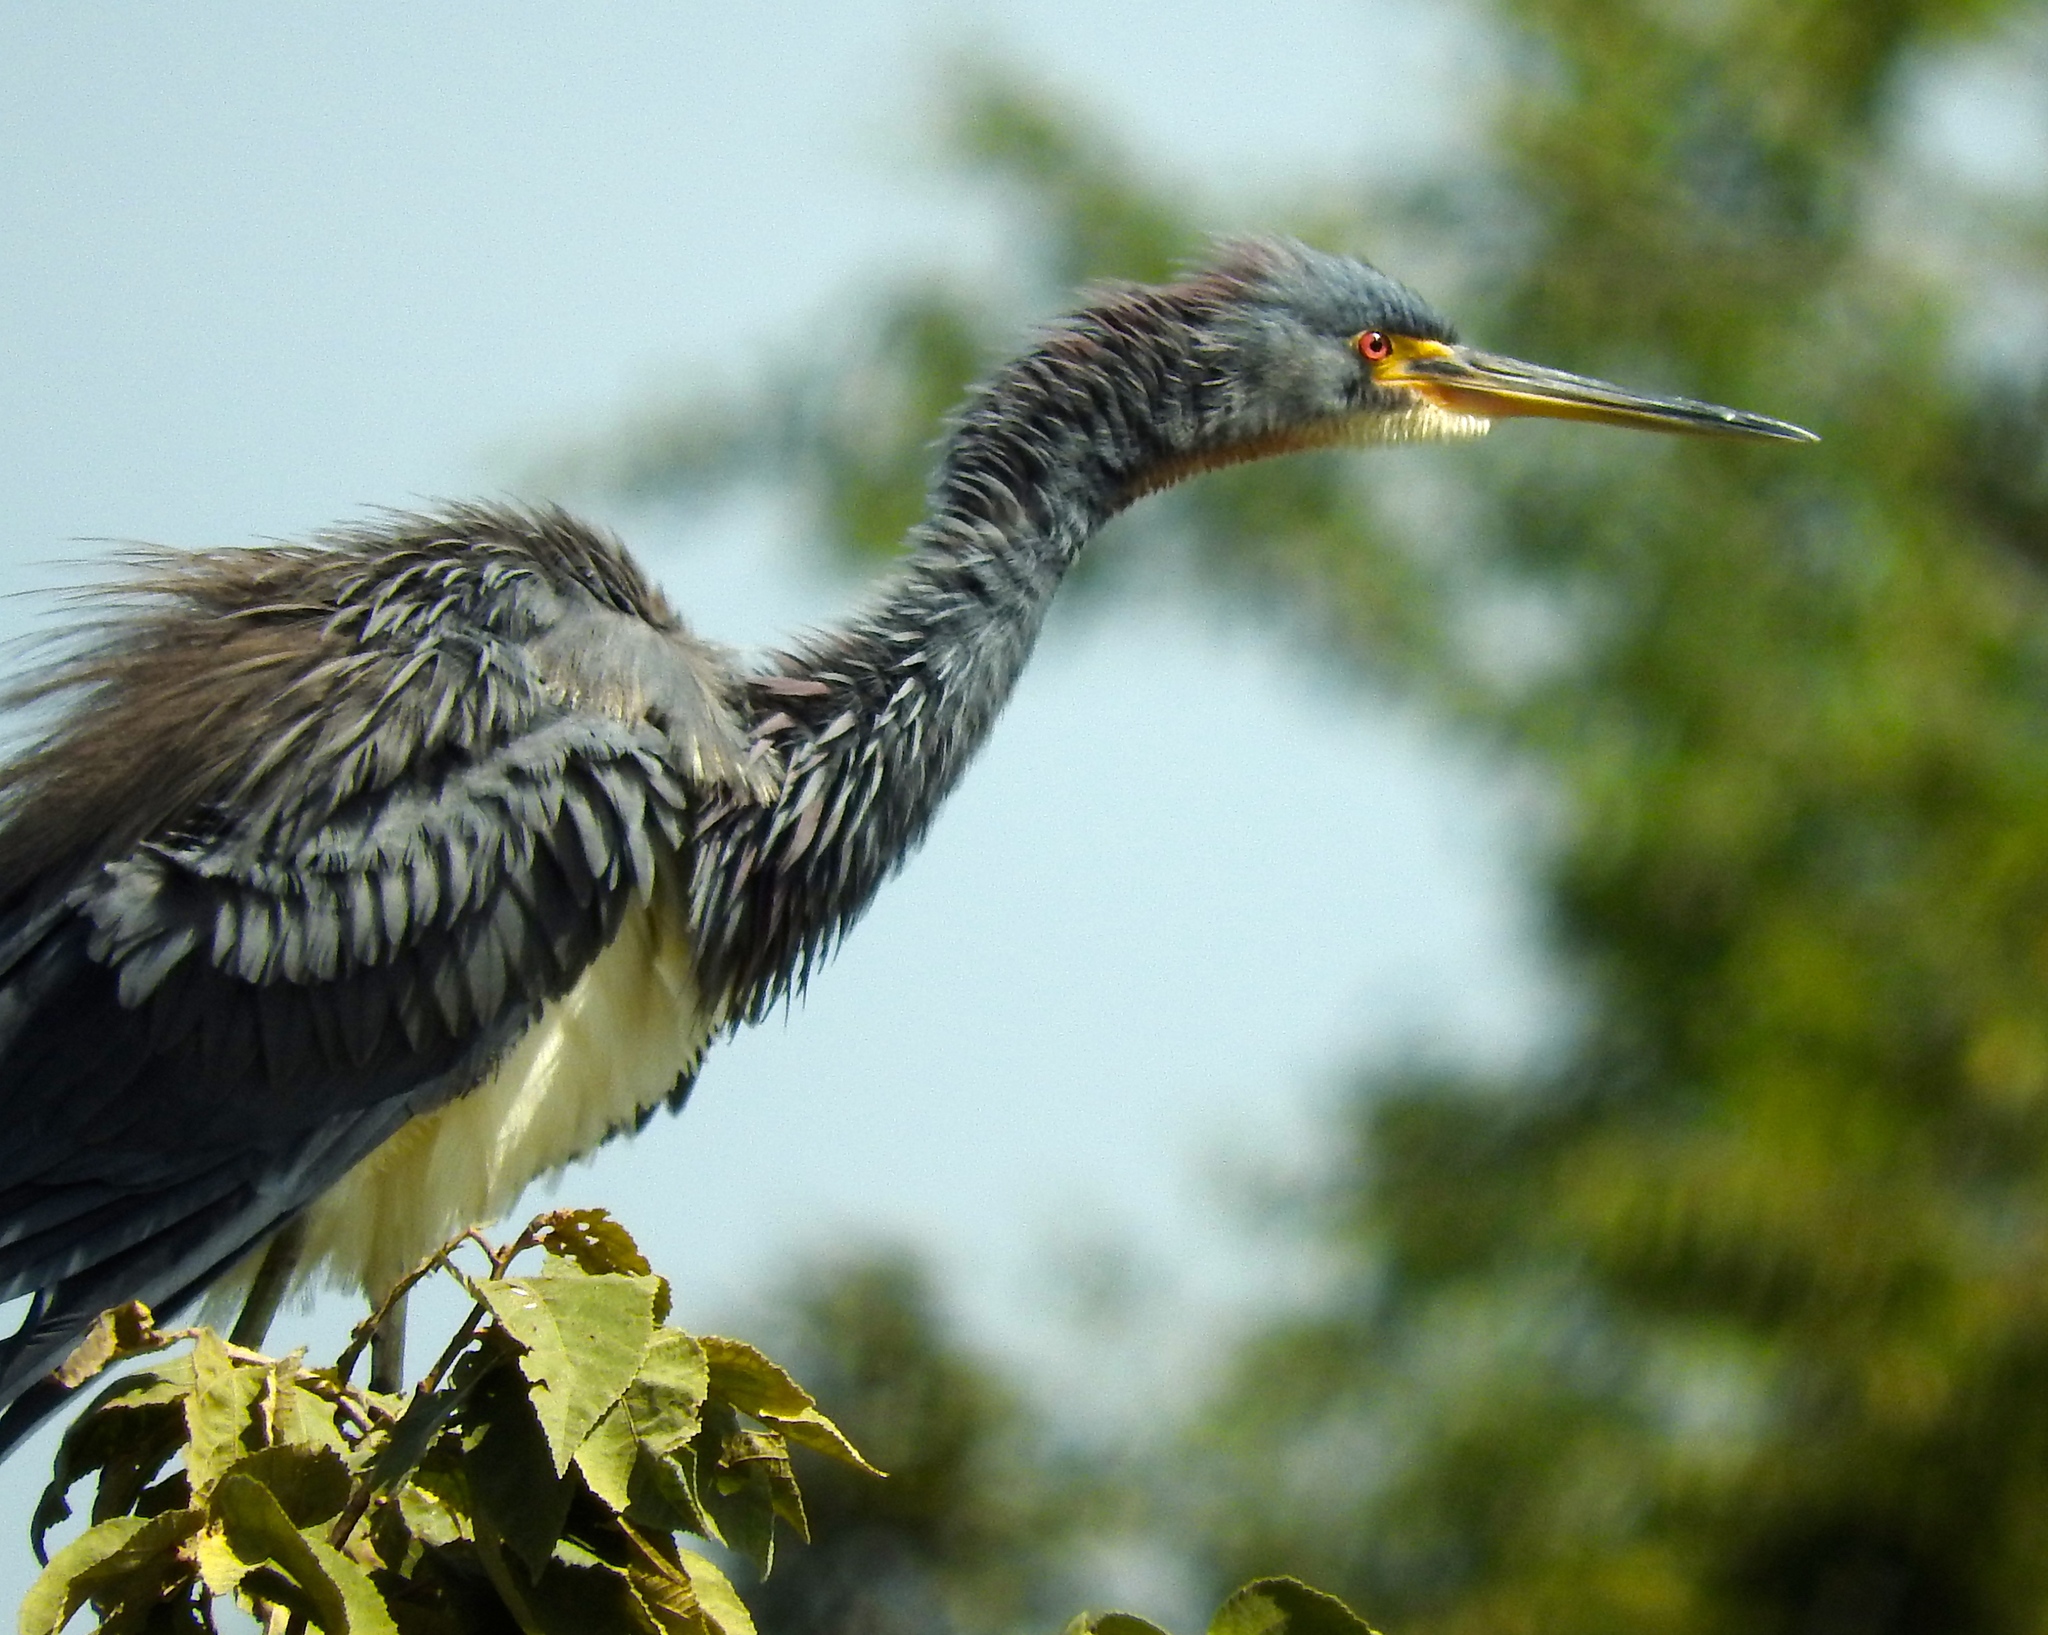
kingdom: Animalia
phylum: Chordata
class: Aves
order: Pelecaniformes
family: Ardeidae
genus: Egretta
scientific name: Egretta tricolor
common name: Tricolored heron
